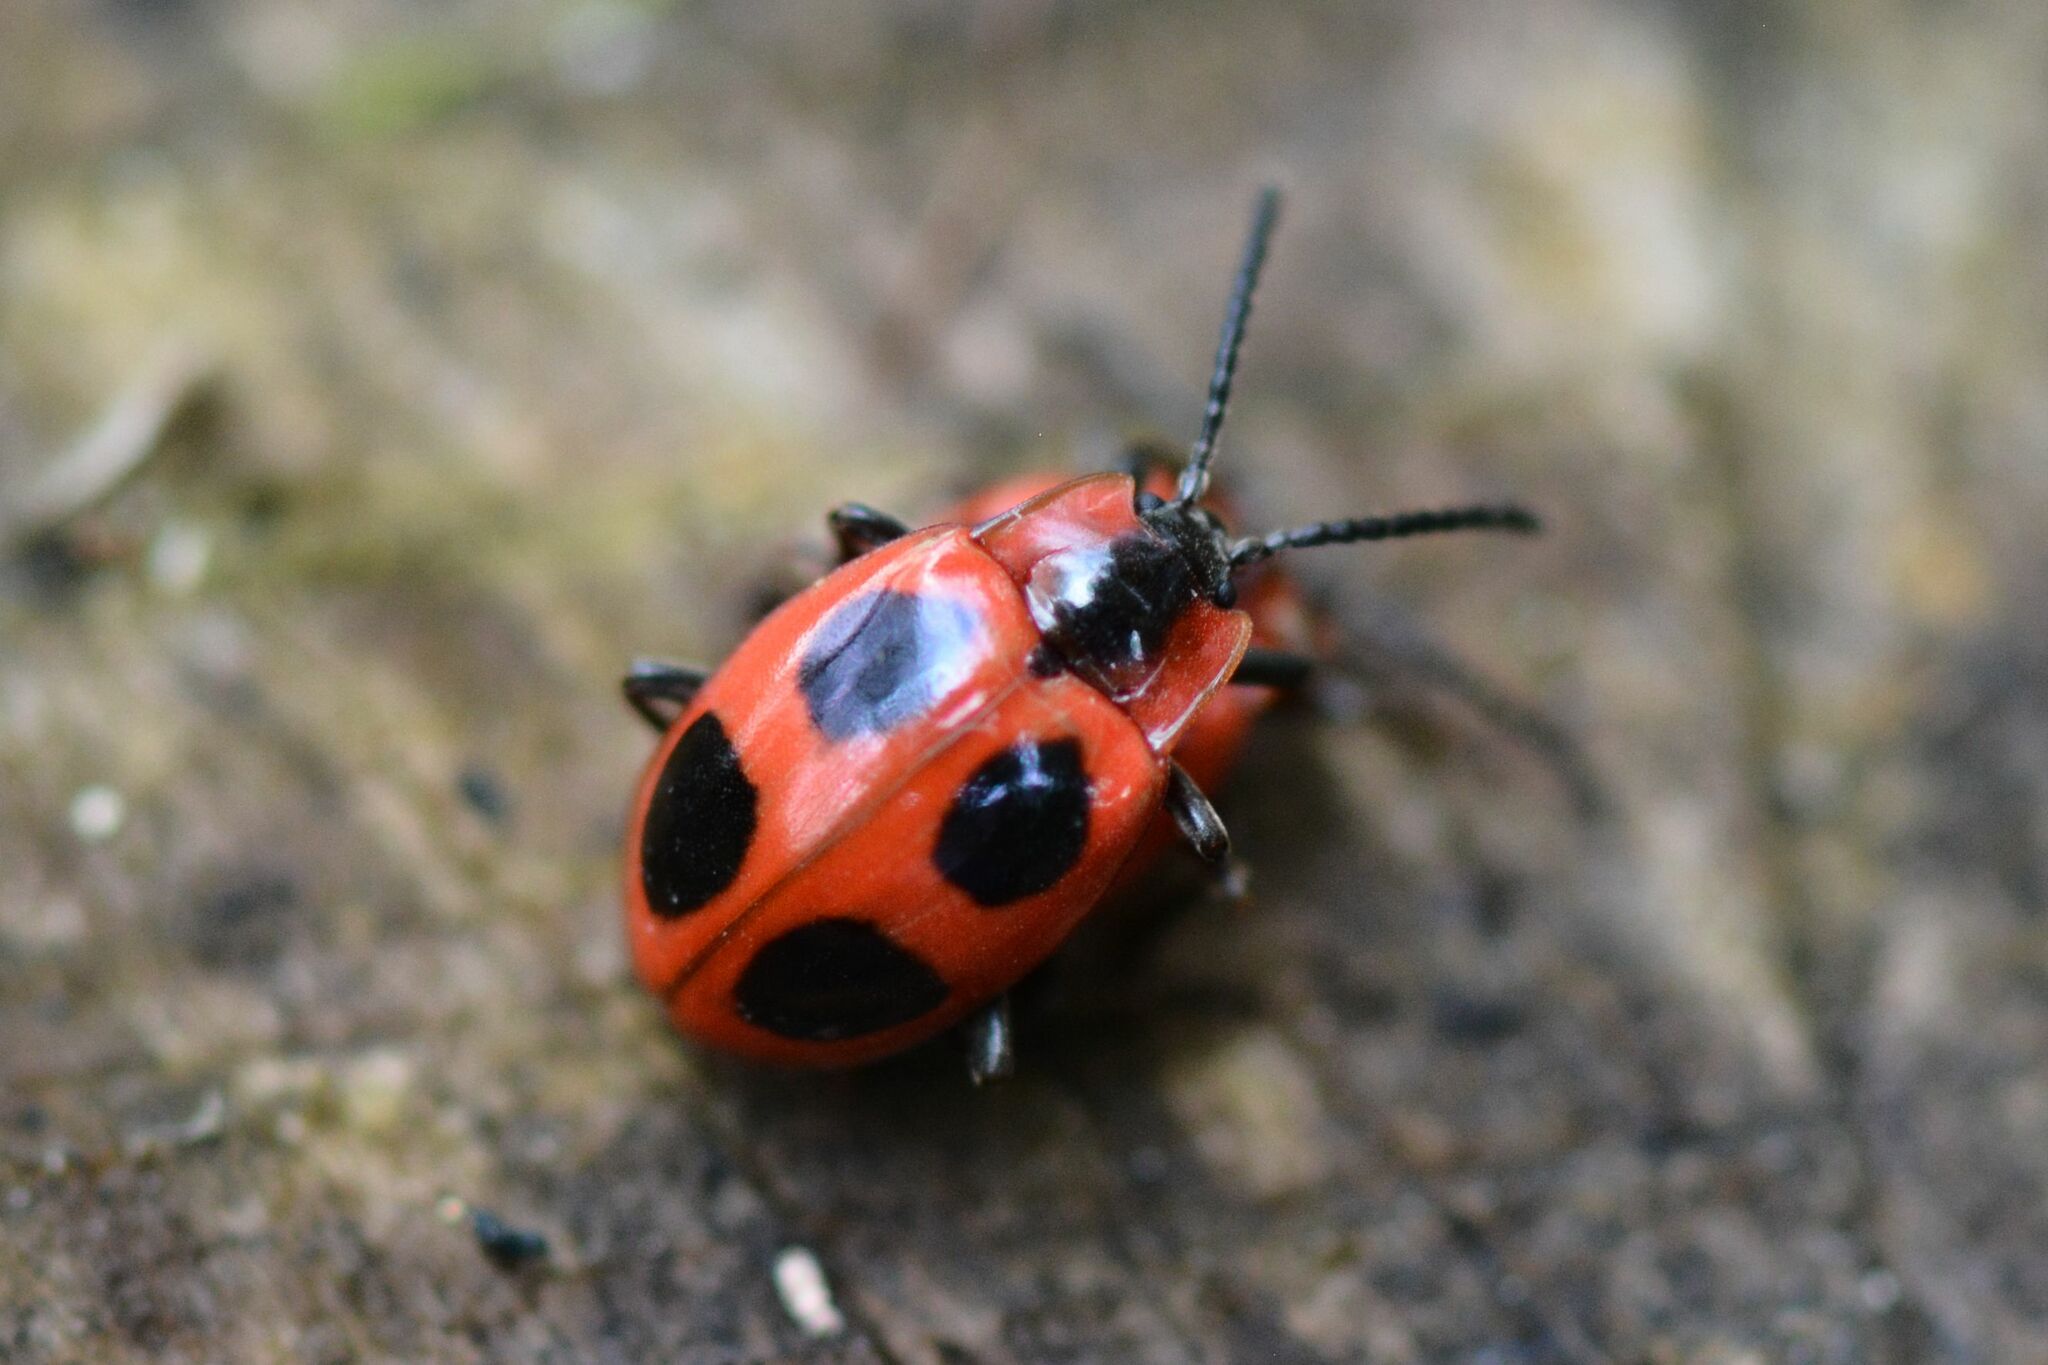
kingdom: Animalia
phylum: Arthropoda
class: Insecta
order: Coleoptera
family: Endomychidae
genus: Endomychus
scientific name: Endomychus coccineus
